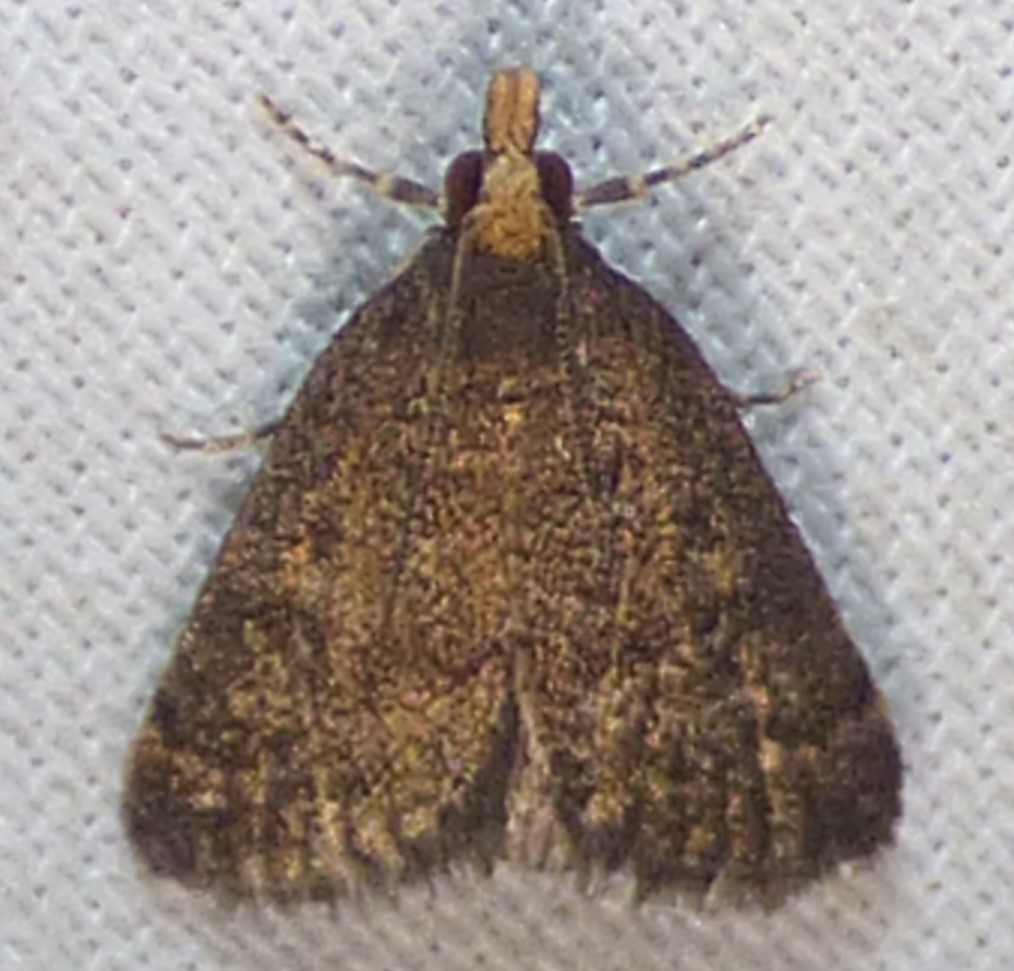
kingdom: Animalia
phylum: Arthropoda
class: Insecta
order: Lepidoptera
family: Crambidae
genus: Pyrausta
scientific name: Pyrausta merrickalis
